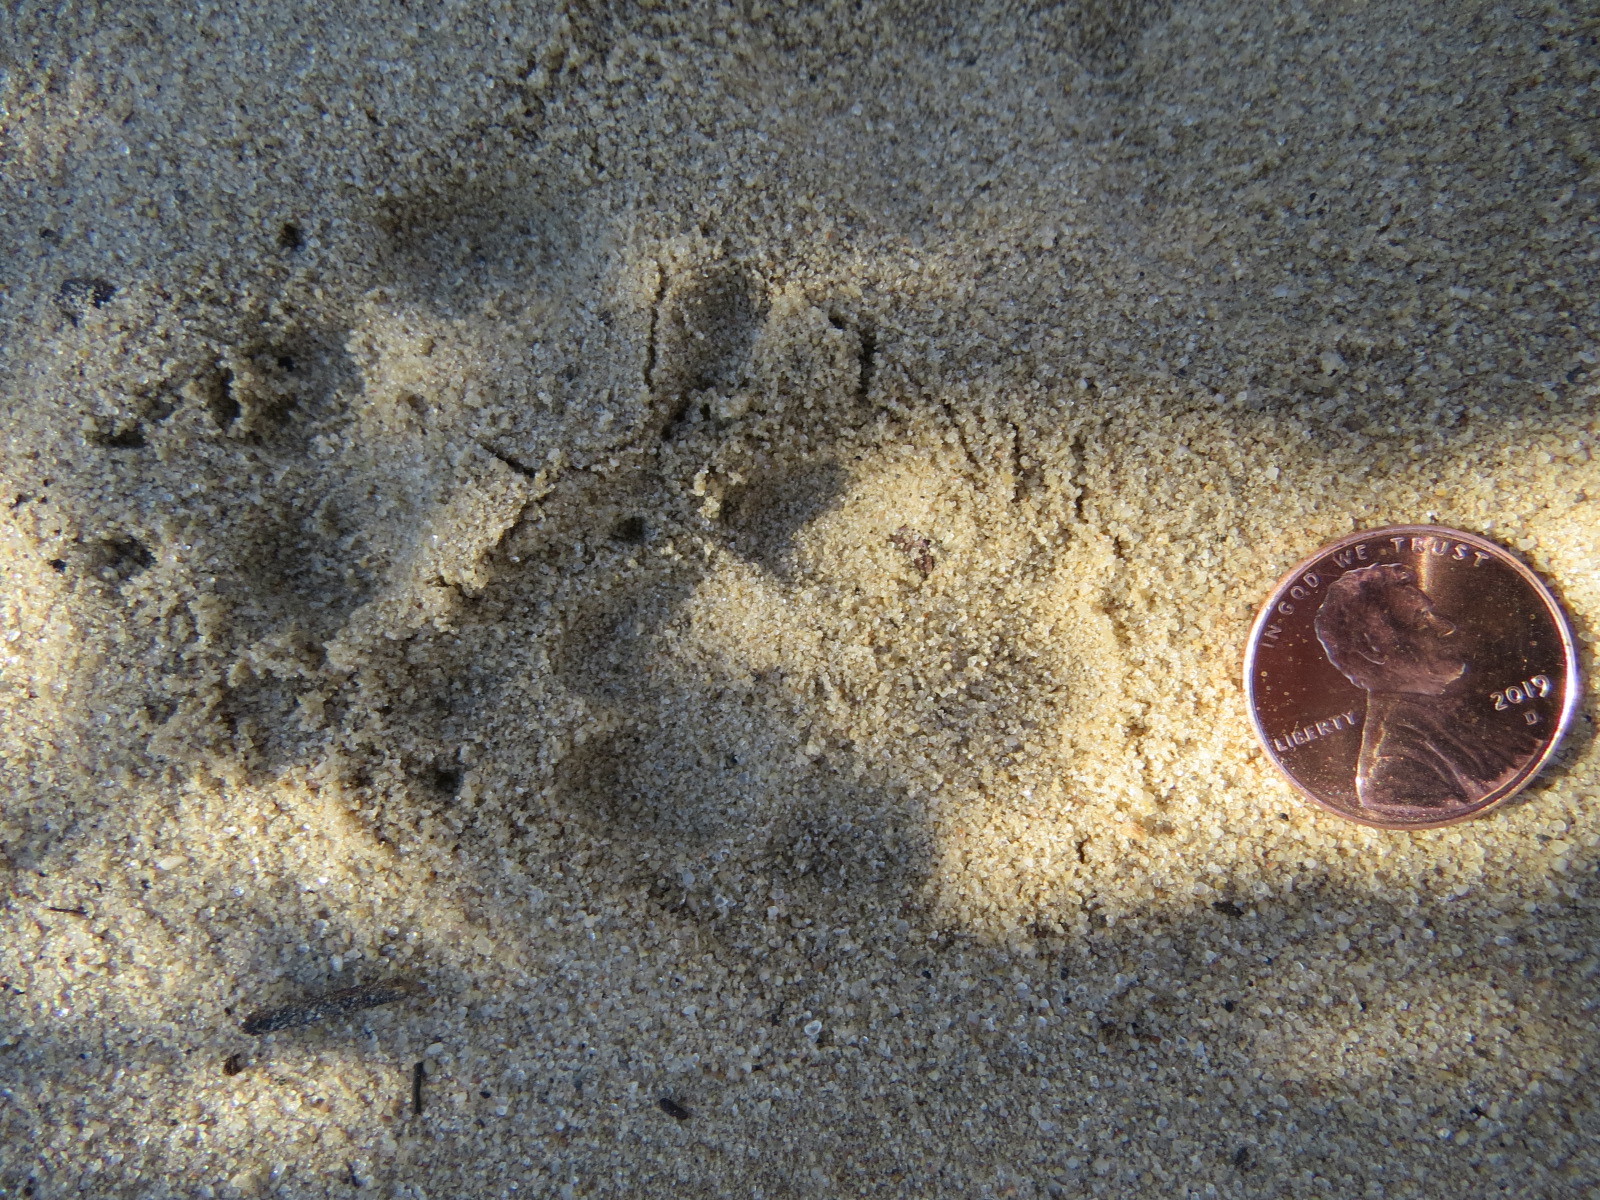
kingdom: Animalia
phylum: Chordata
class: Mammalia
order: Carnivora
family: Canidae
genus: Urocyon
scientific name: Urocyon cinereoargenteus
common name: Gray fox
